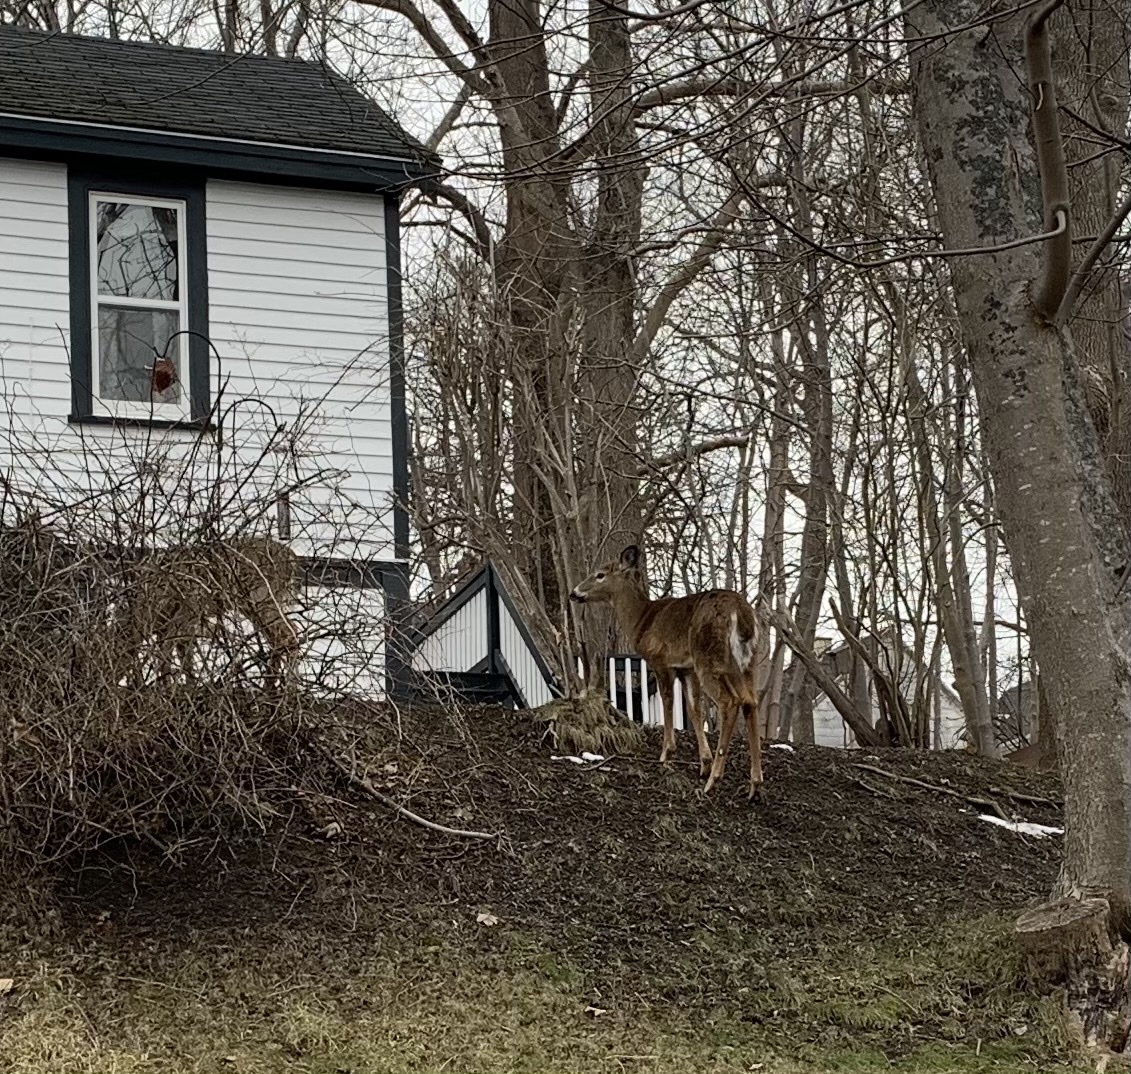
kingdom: Animalia
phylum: Chordata
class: Mammalia
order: Artiodactyla
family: Cervidae
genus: Odocoileus
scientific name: Odocoileus virginianus
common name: White-tailed deer
